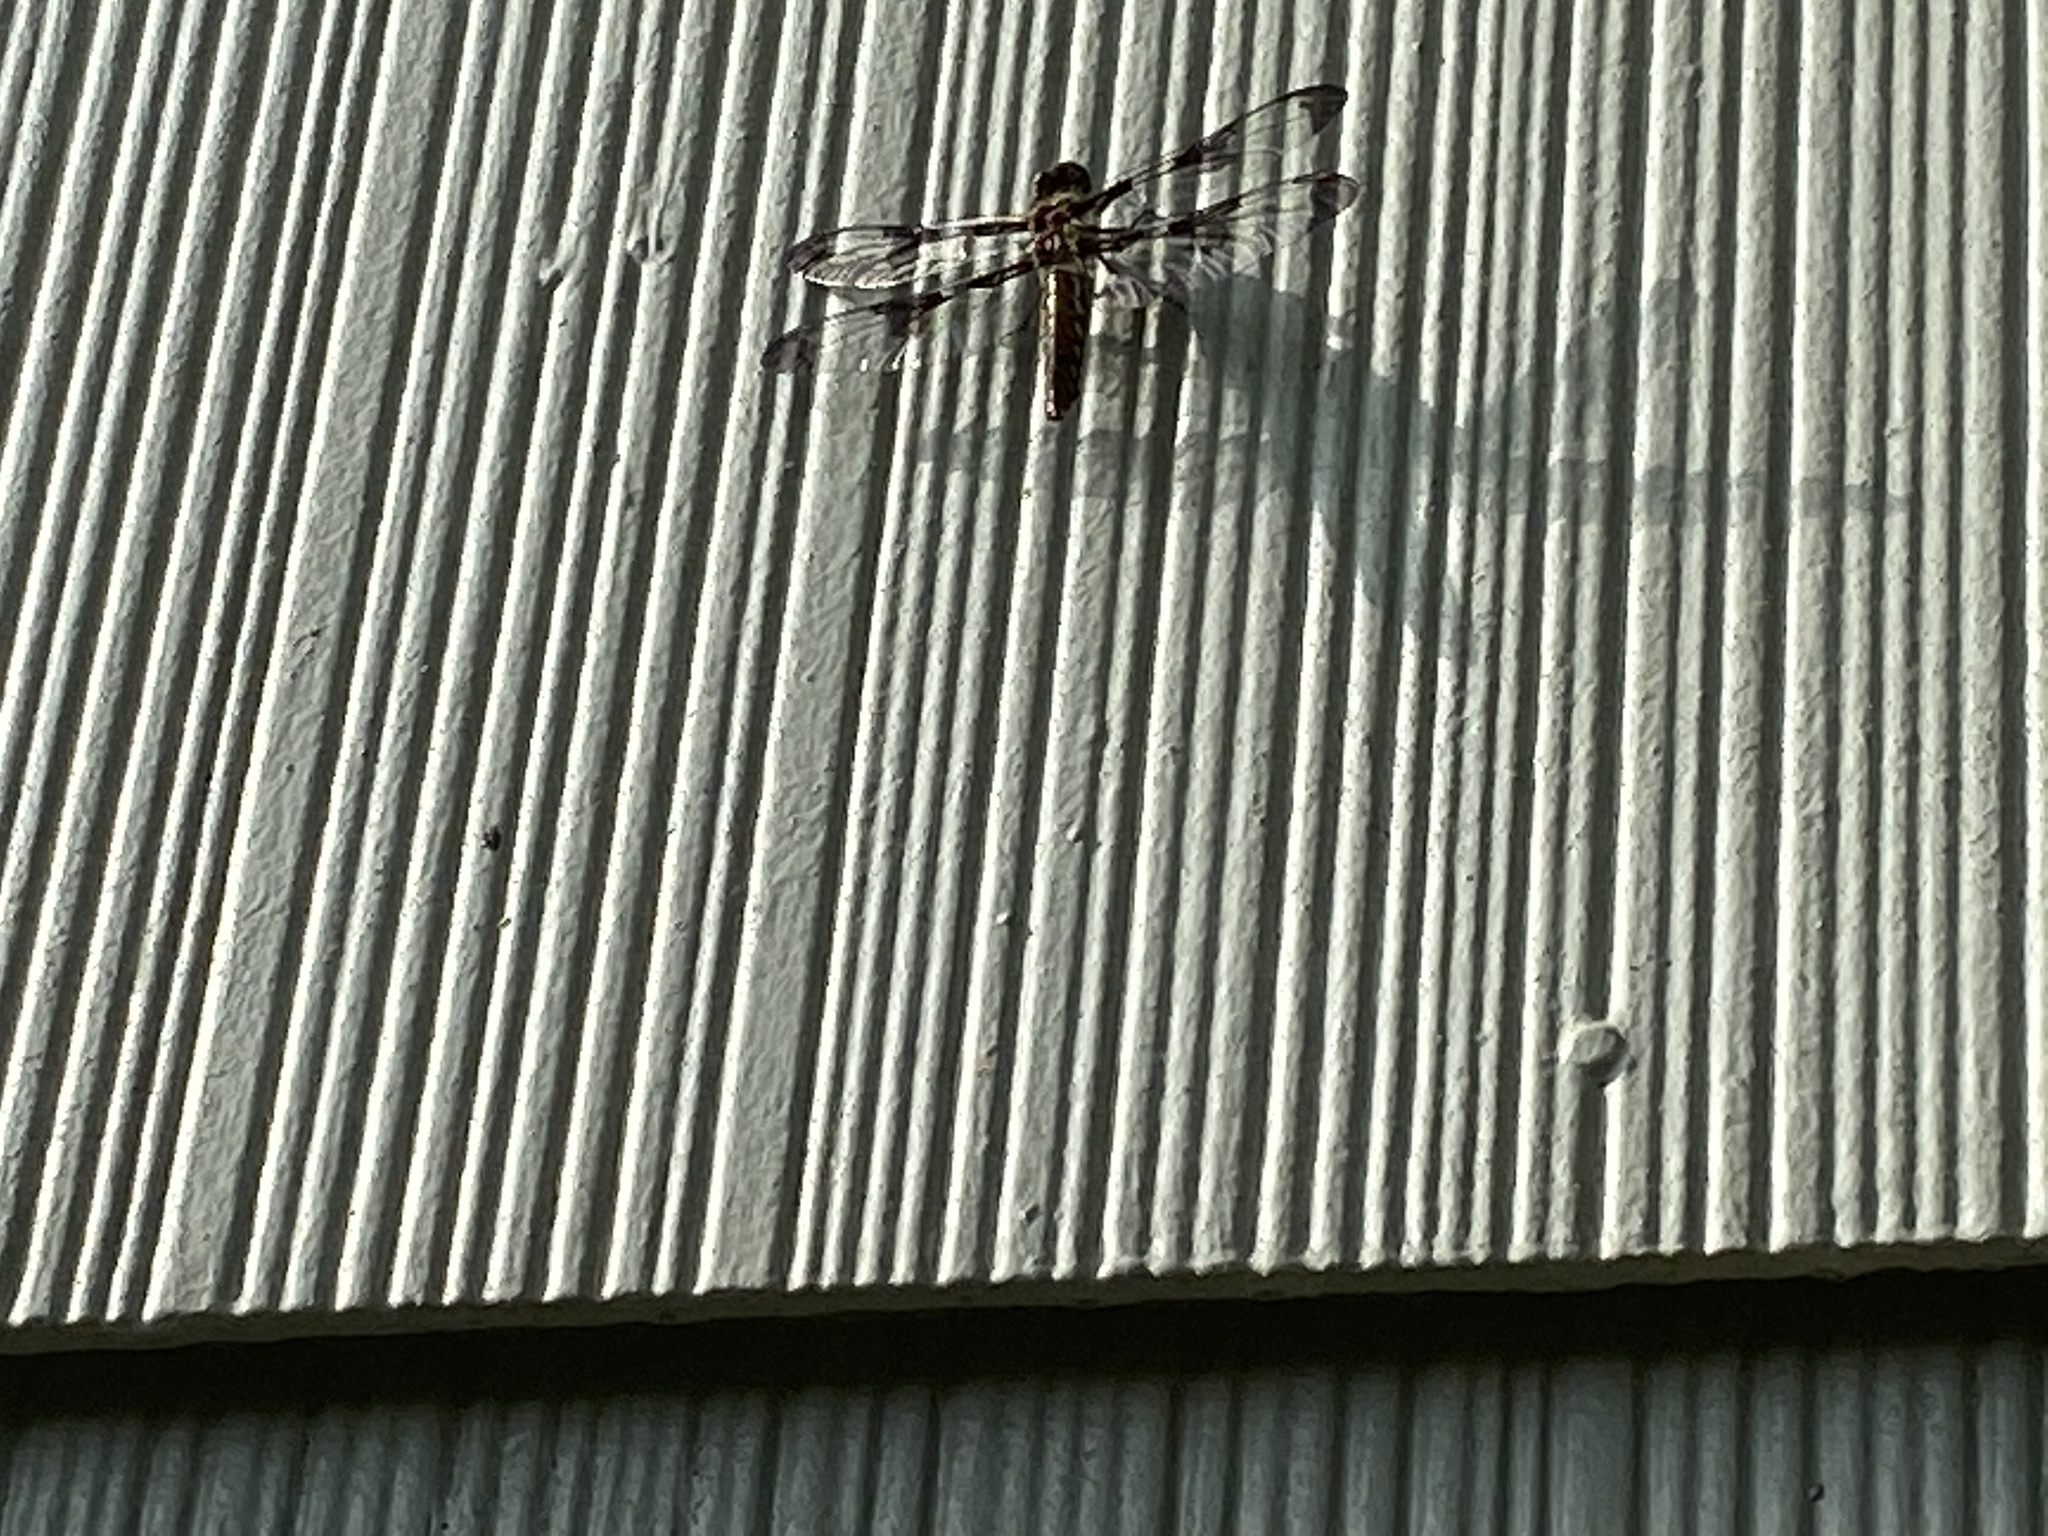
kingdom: Animalia
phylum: Arthropoda
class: Insecta
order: Odonata
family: Libellulidae
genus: Plathemis
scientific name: Plathemis lydia
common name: Common whitetail
